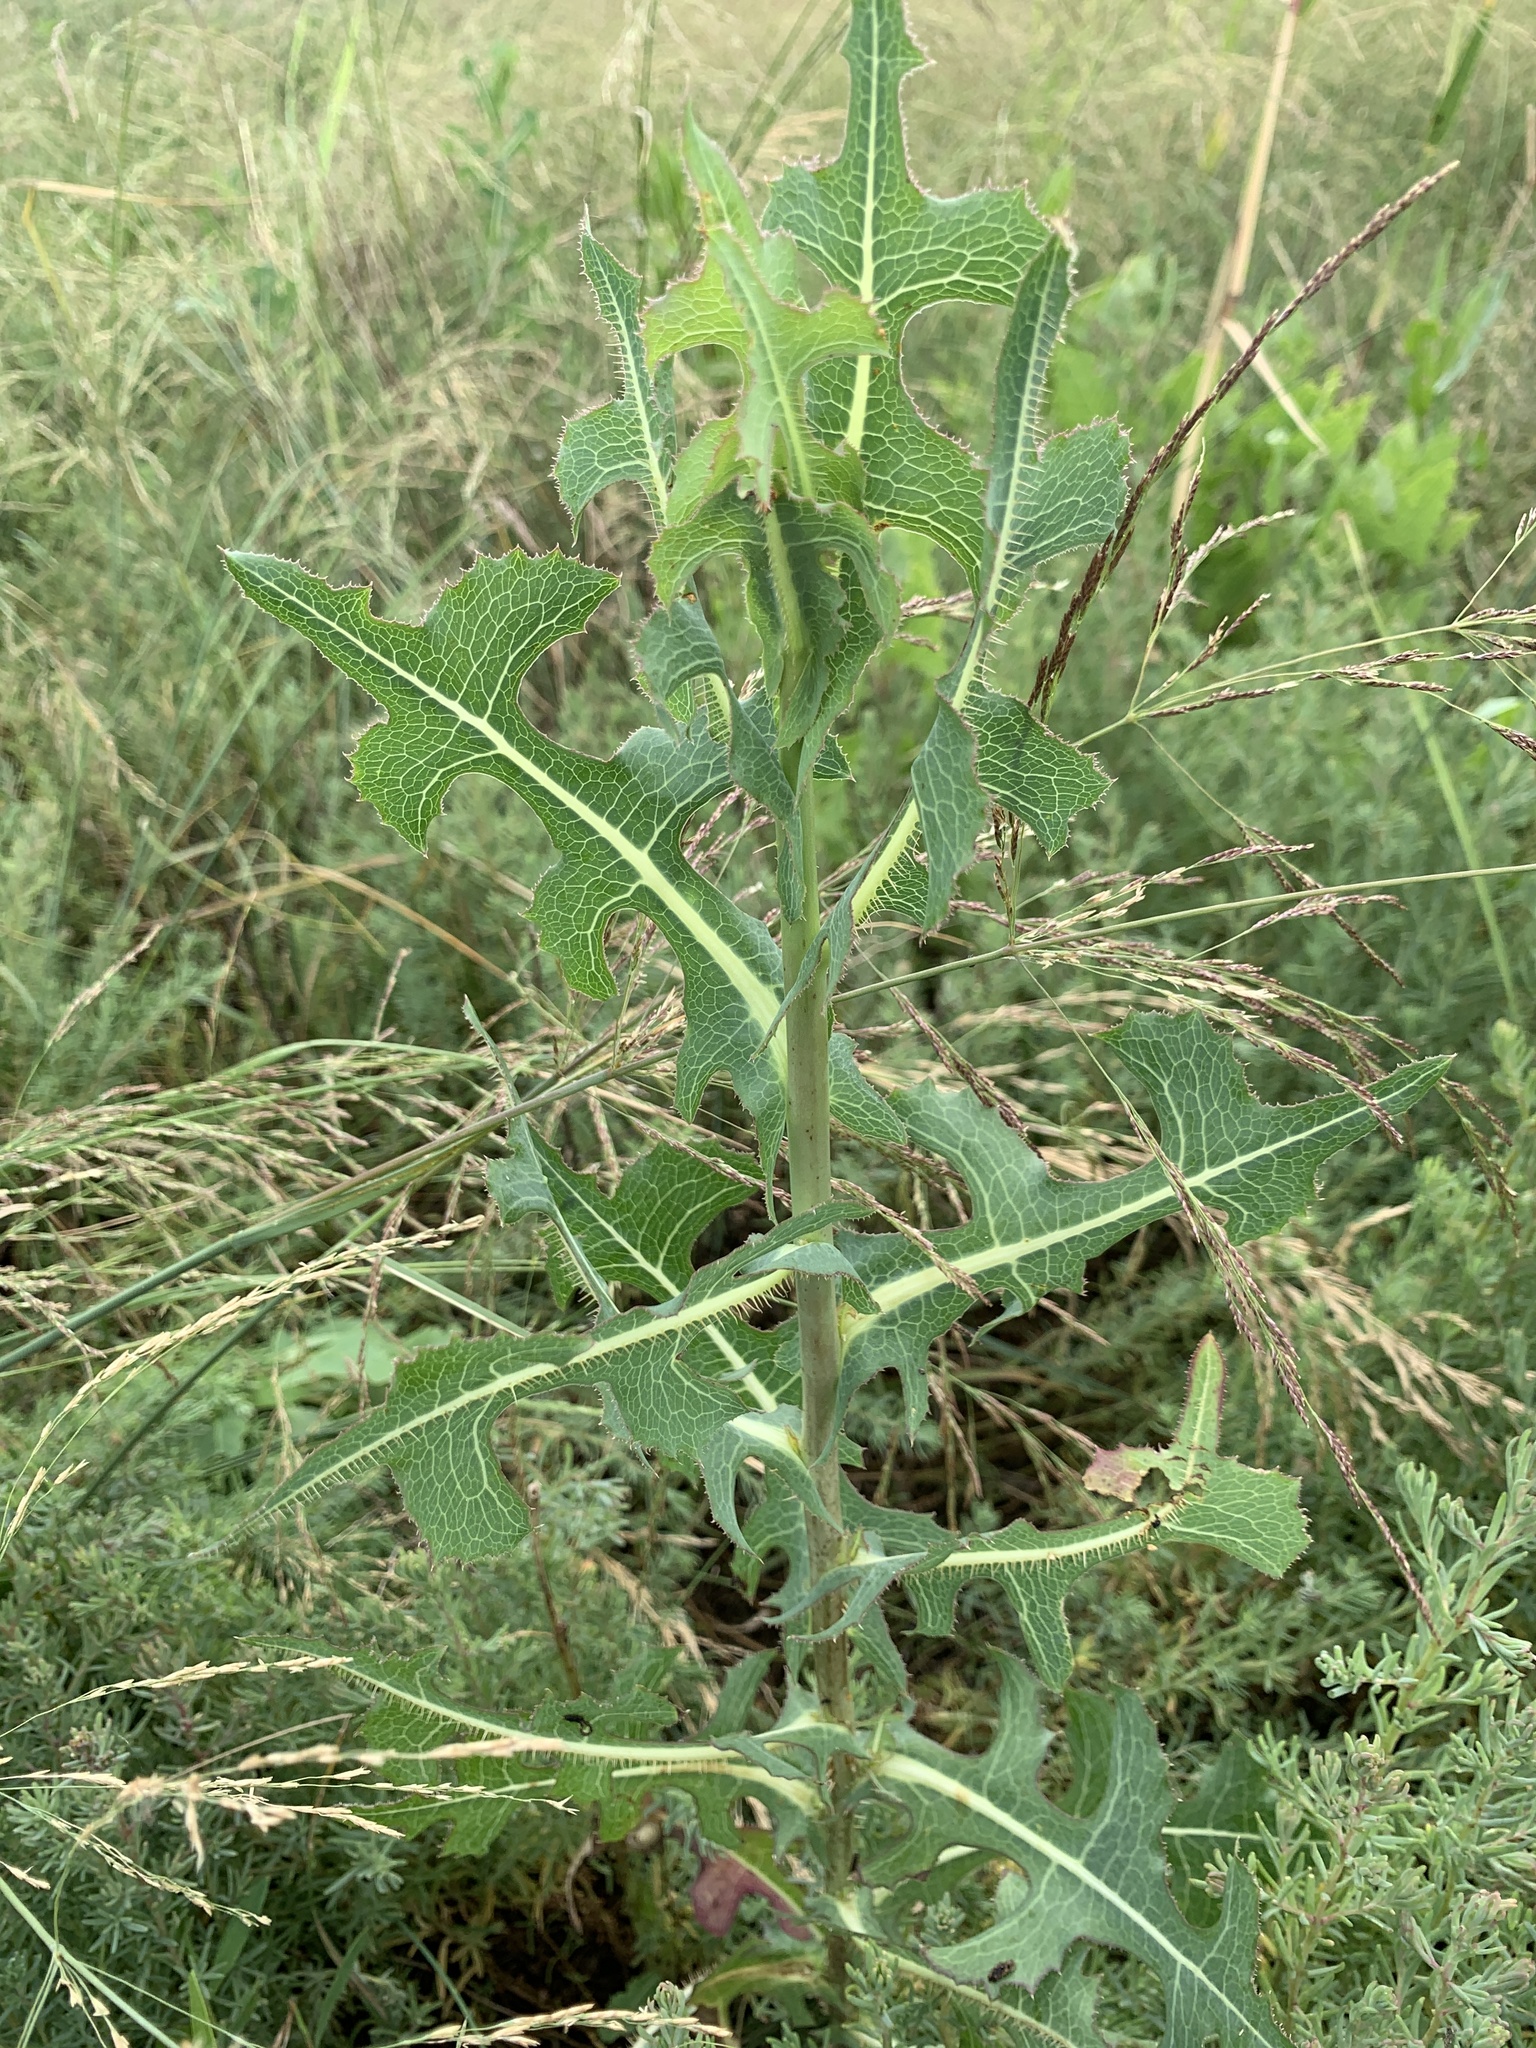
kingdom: Plantae
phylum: Tracheophyta
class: Magnoliopsida
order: Asterales
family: Asteraceae
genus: Lactuca
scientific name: Lactuca serriola
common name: Prickly lettuce
